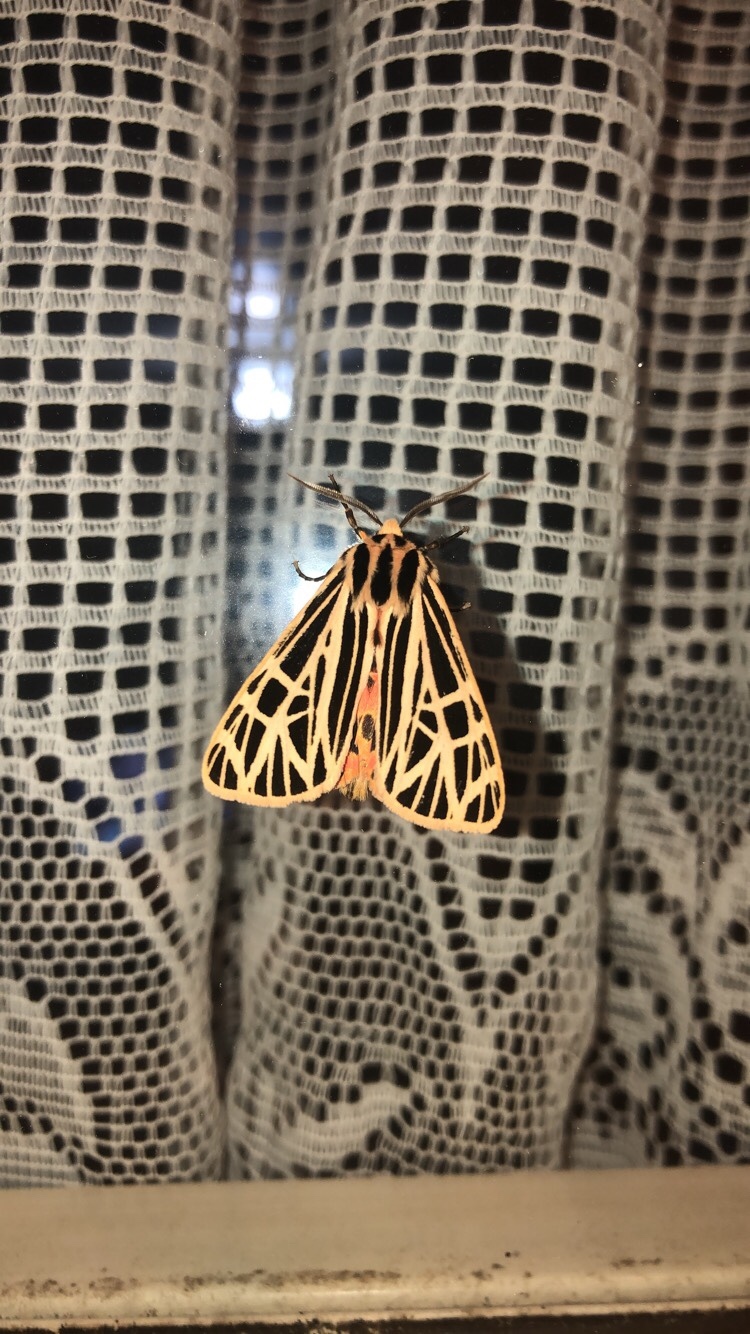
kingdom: Animalia
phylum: Arthropoda
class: Insecta
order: Lepidoptera
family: Erebidae
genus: Grammia
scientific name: Grammia virgo
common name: Virgin tiger moth
